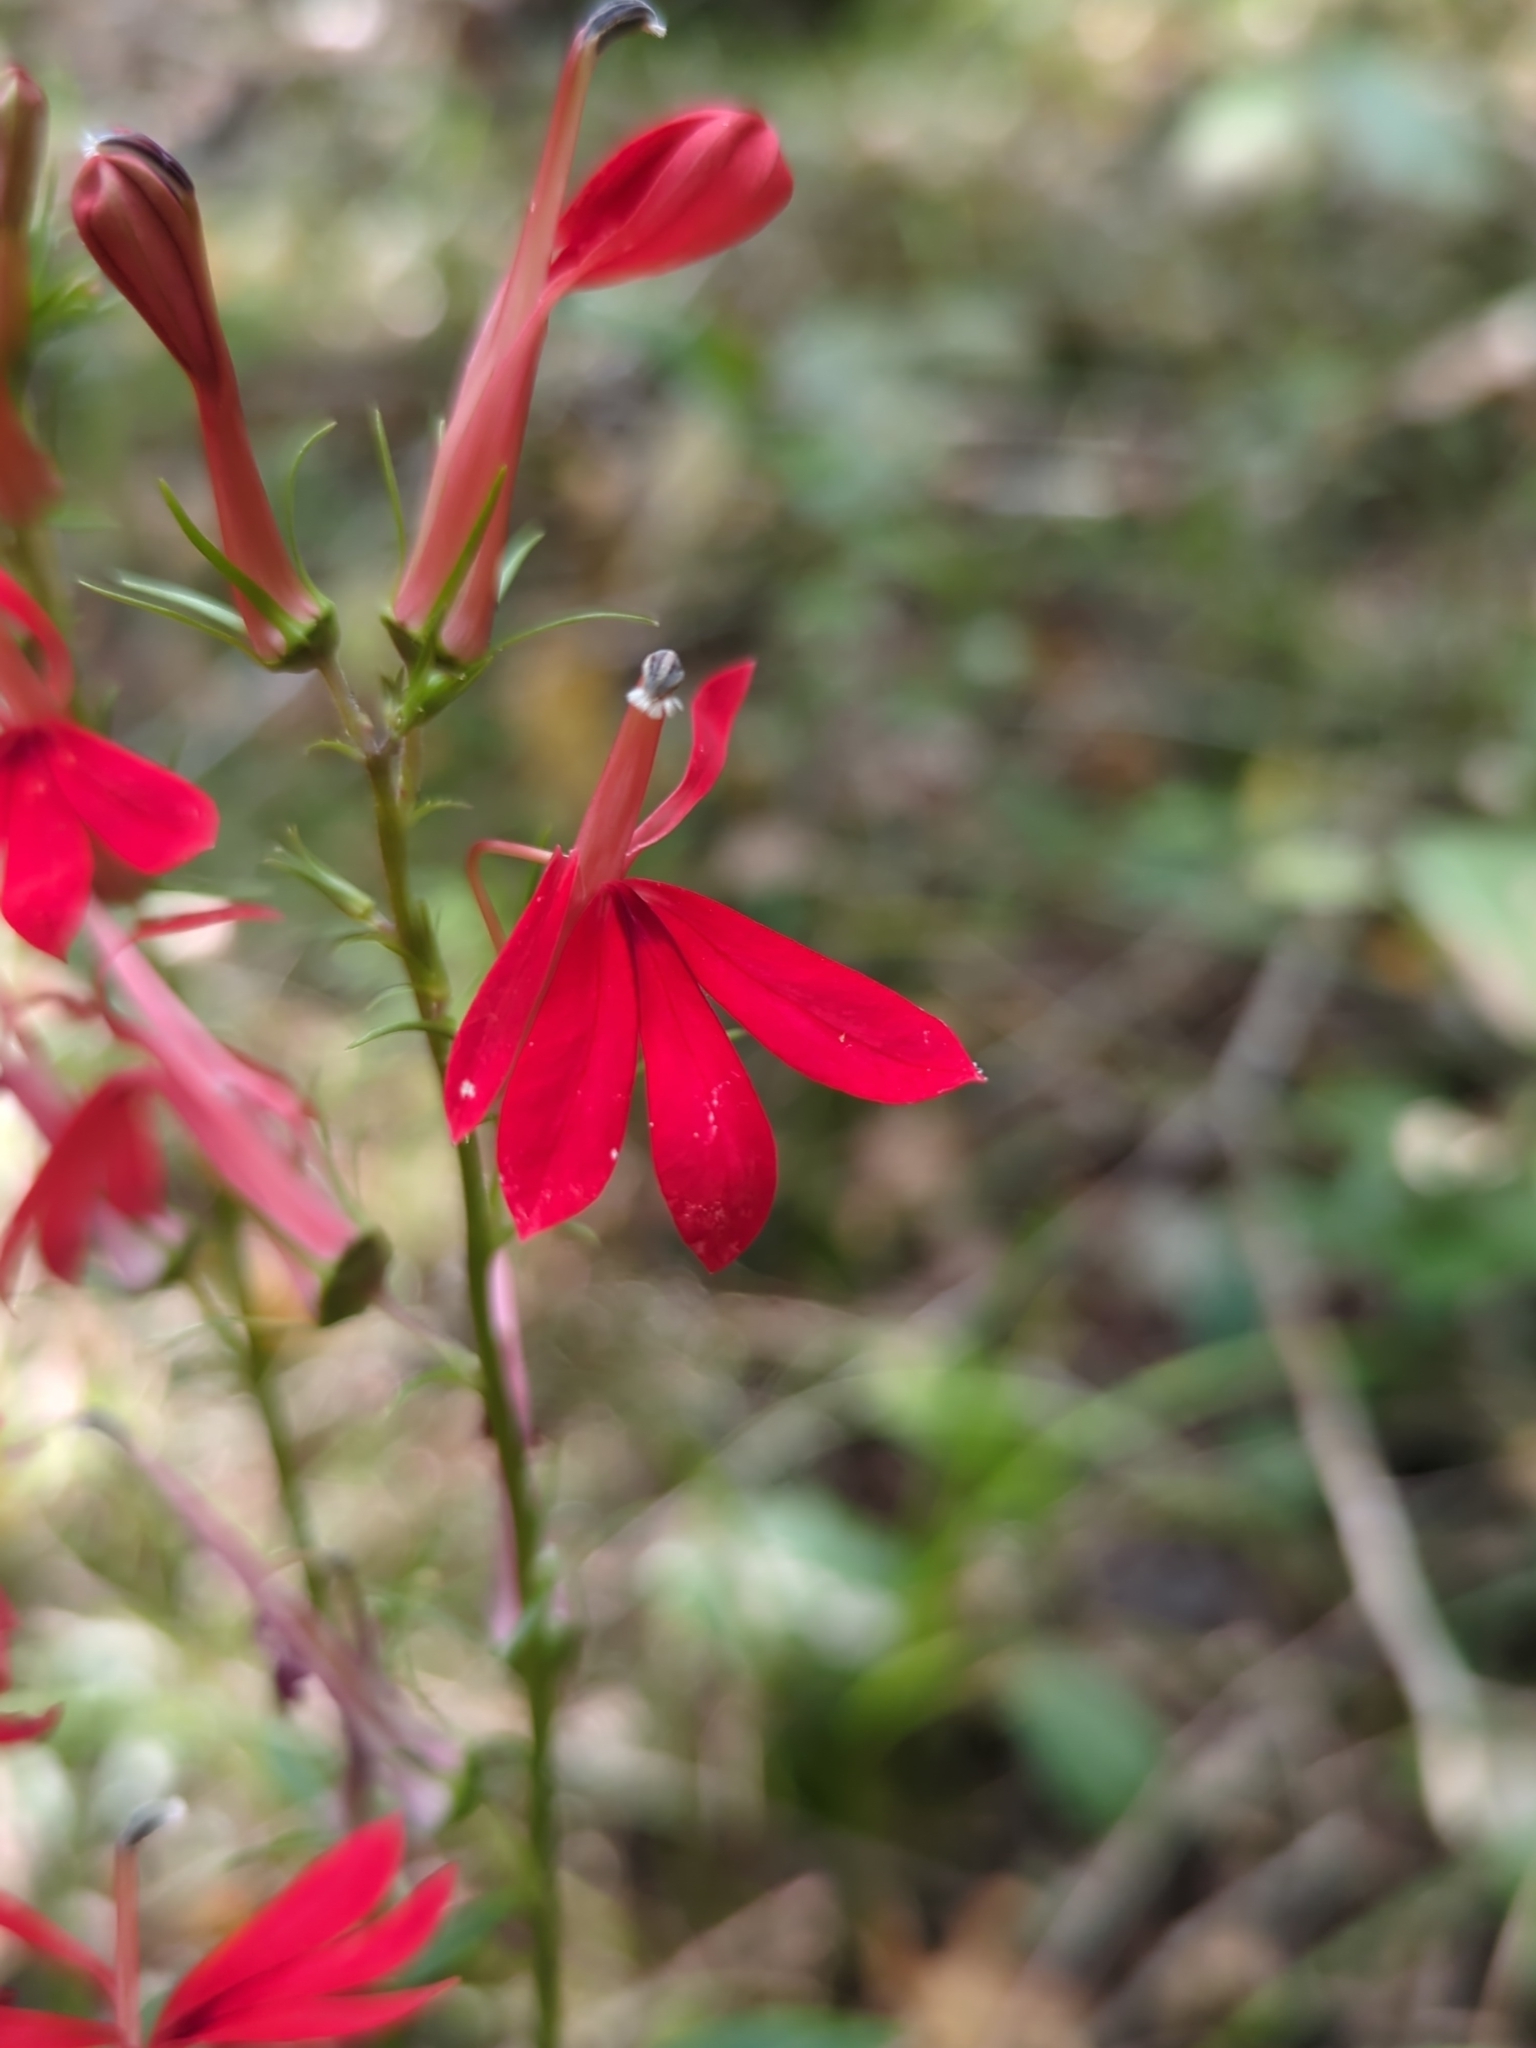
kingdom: Plantae
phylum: Tracheophyta
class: Magnoliopsida
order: Asterales
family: Campanulaceae
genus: Lobelia
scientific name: Lobelia cardinalis
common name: Cardinal flower
